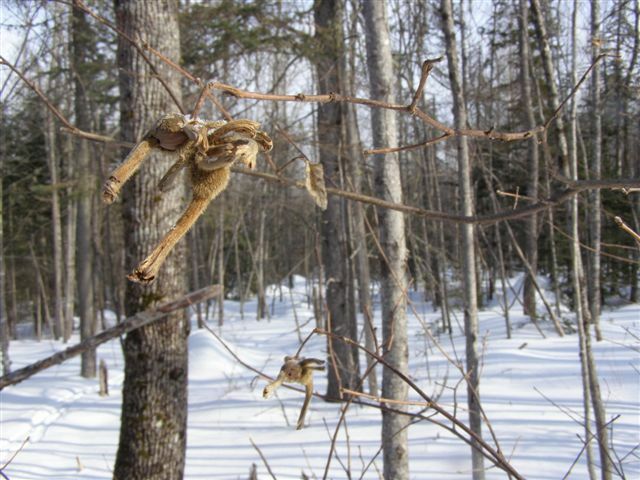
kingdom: Plantae
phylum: Tracheophyta
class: Magnoliopsida
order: Fagales
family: Betulaceae
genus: Corylus
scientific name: Corylus cornuta
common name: Beaked hazel
